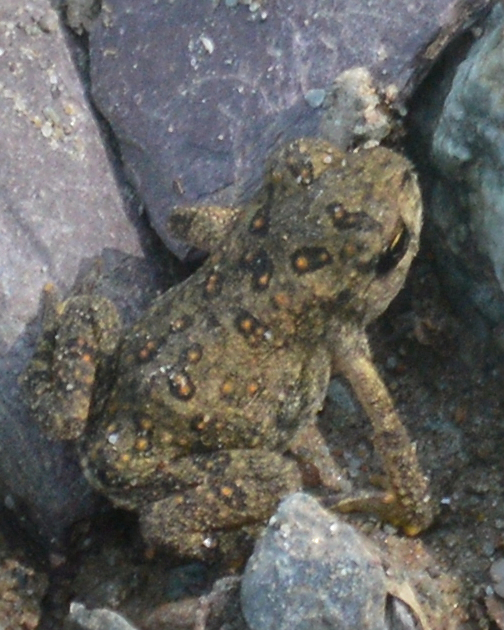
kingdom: Animalia
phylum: Chordata
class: Amphibia
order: Anura
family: Bufonidae
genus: Anaxyrus
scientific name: Anaxyrus americanus
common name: American toad
